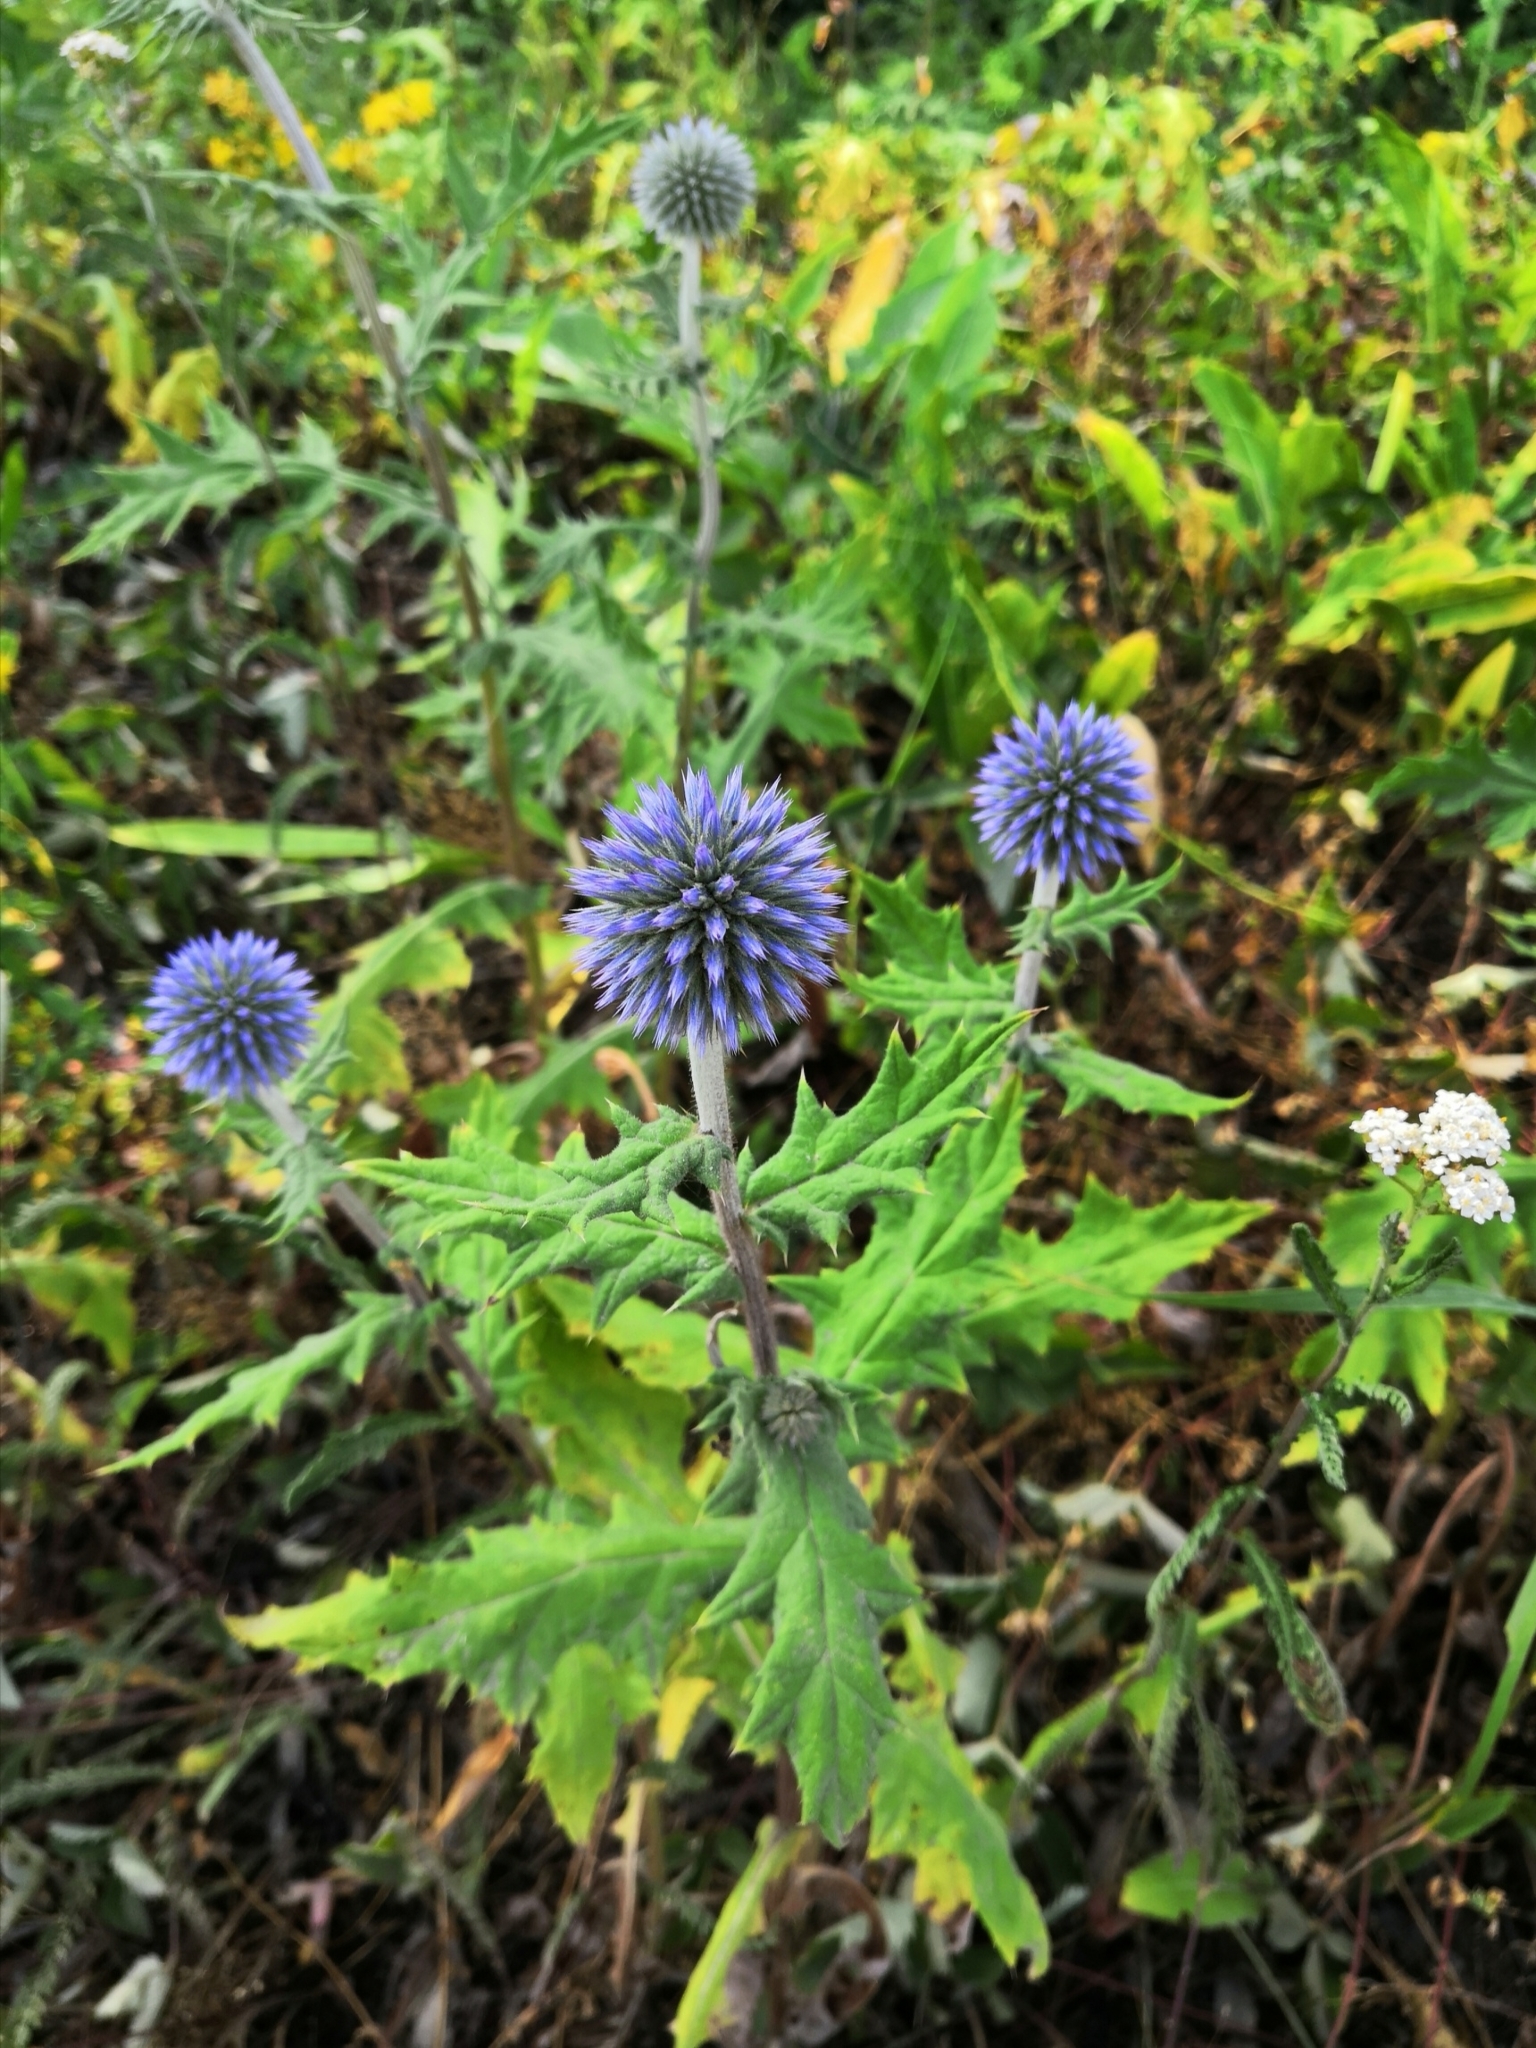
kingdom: Plantae
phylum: Tracheophyta
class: Magnoliopsida
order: Asterales
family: Asteraceae
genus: Echinops
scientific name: Echinops bannaticus
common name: Blue globe-thistle
